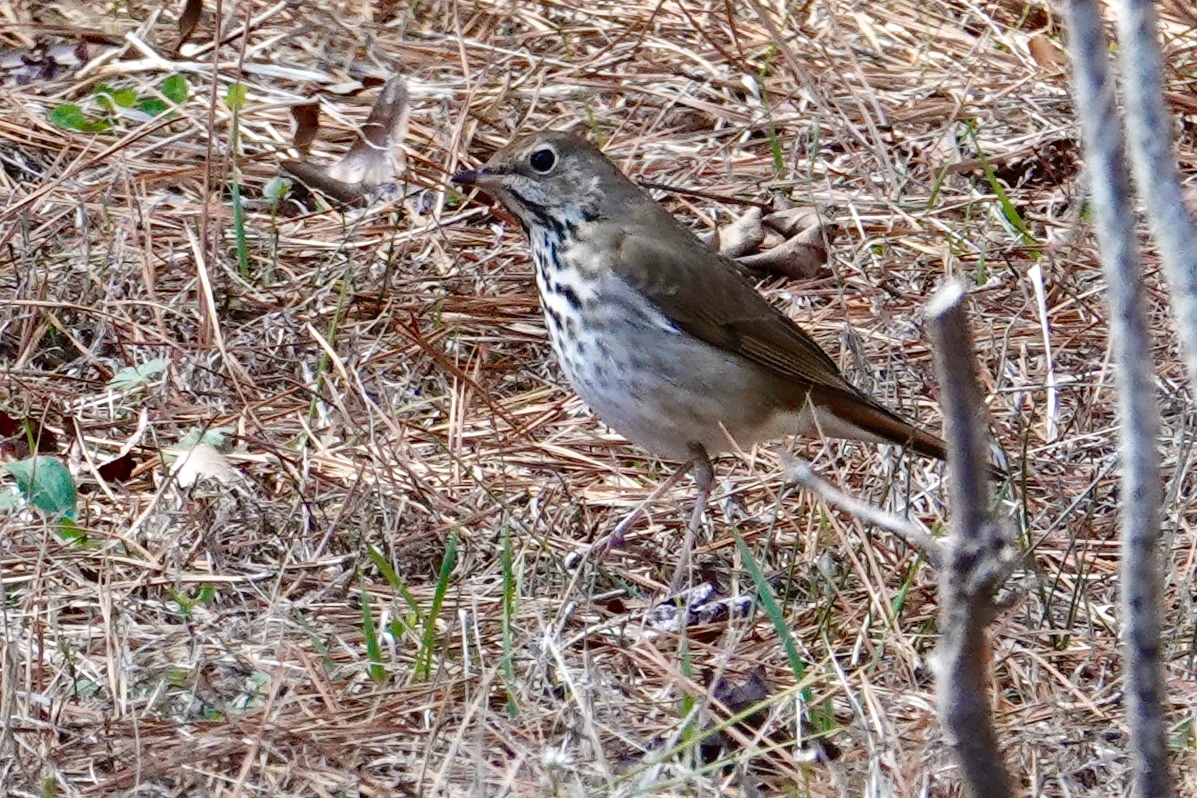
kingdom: Animalia
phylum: Chordata
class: Aves
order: Passeriformes
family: Turdidae
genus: Catharus
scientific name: Catharus guttatus
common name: Hermit thrush
